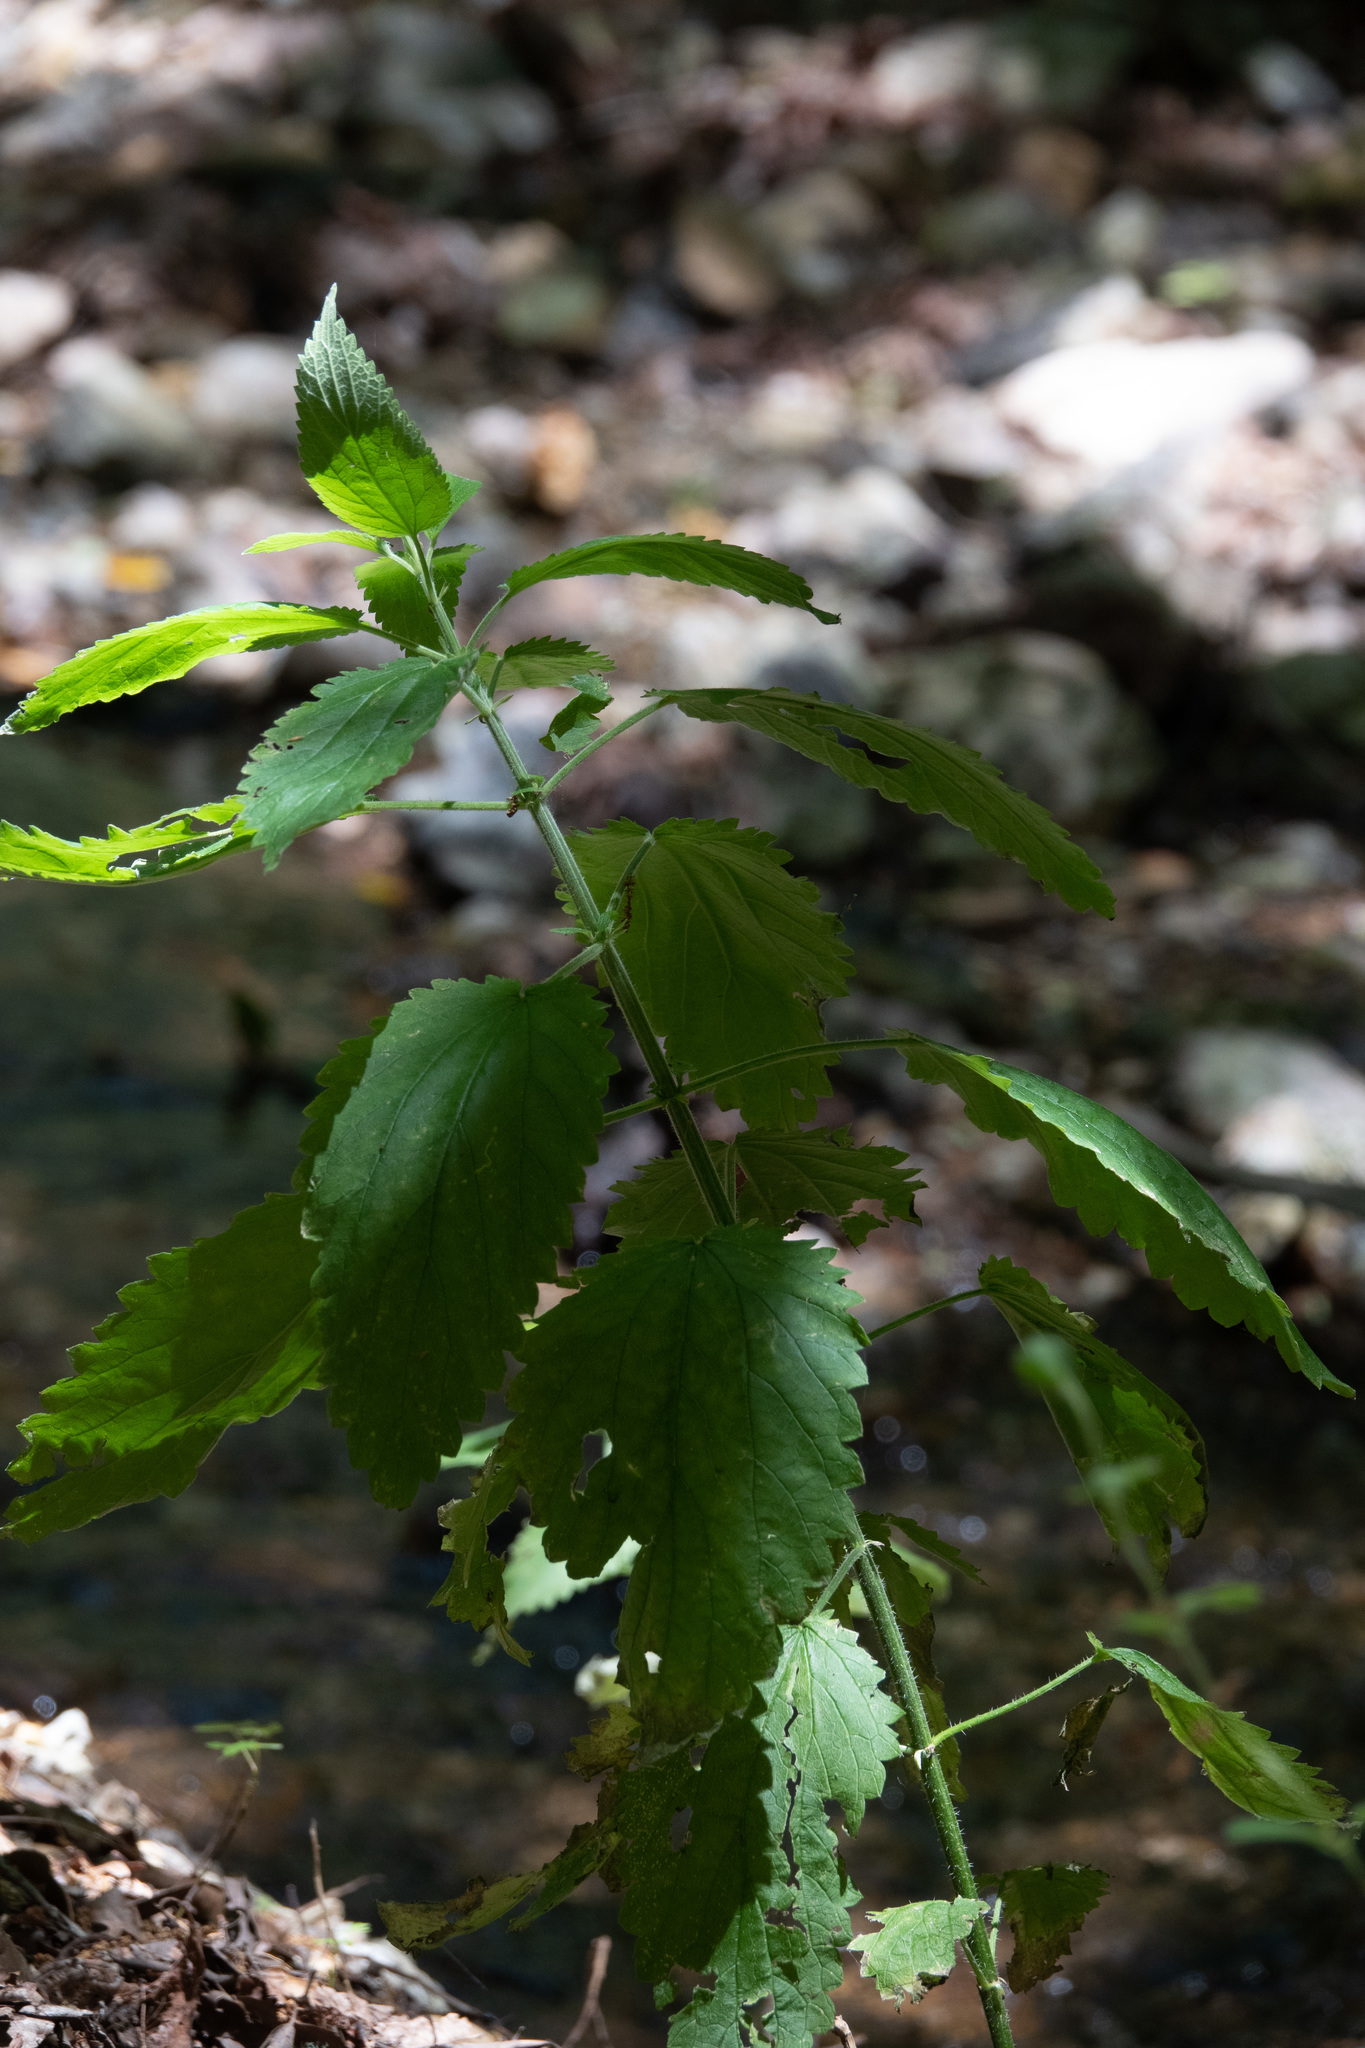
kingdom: Plantae
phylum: Tracheophyta
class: Magnoliopsida
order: Rosales
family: Urticaceae
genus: Urtica
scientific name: Urtica dioica
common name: Common nettle
